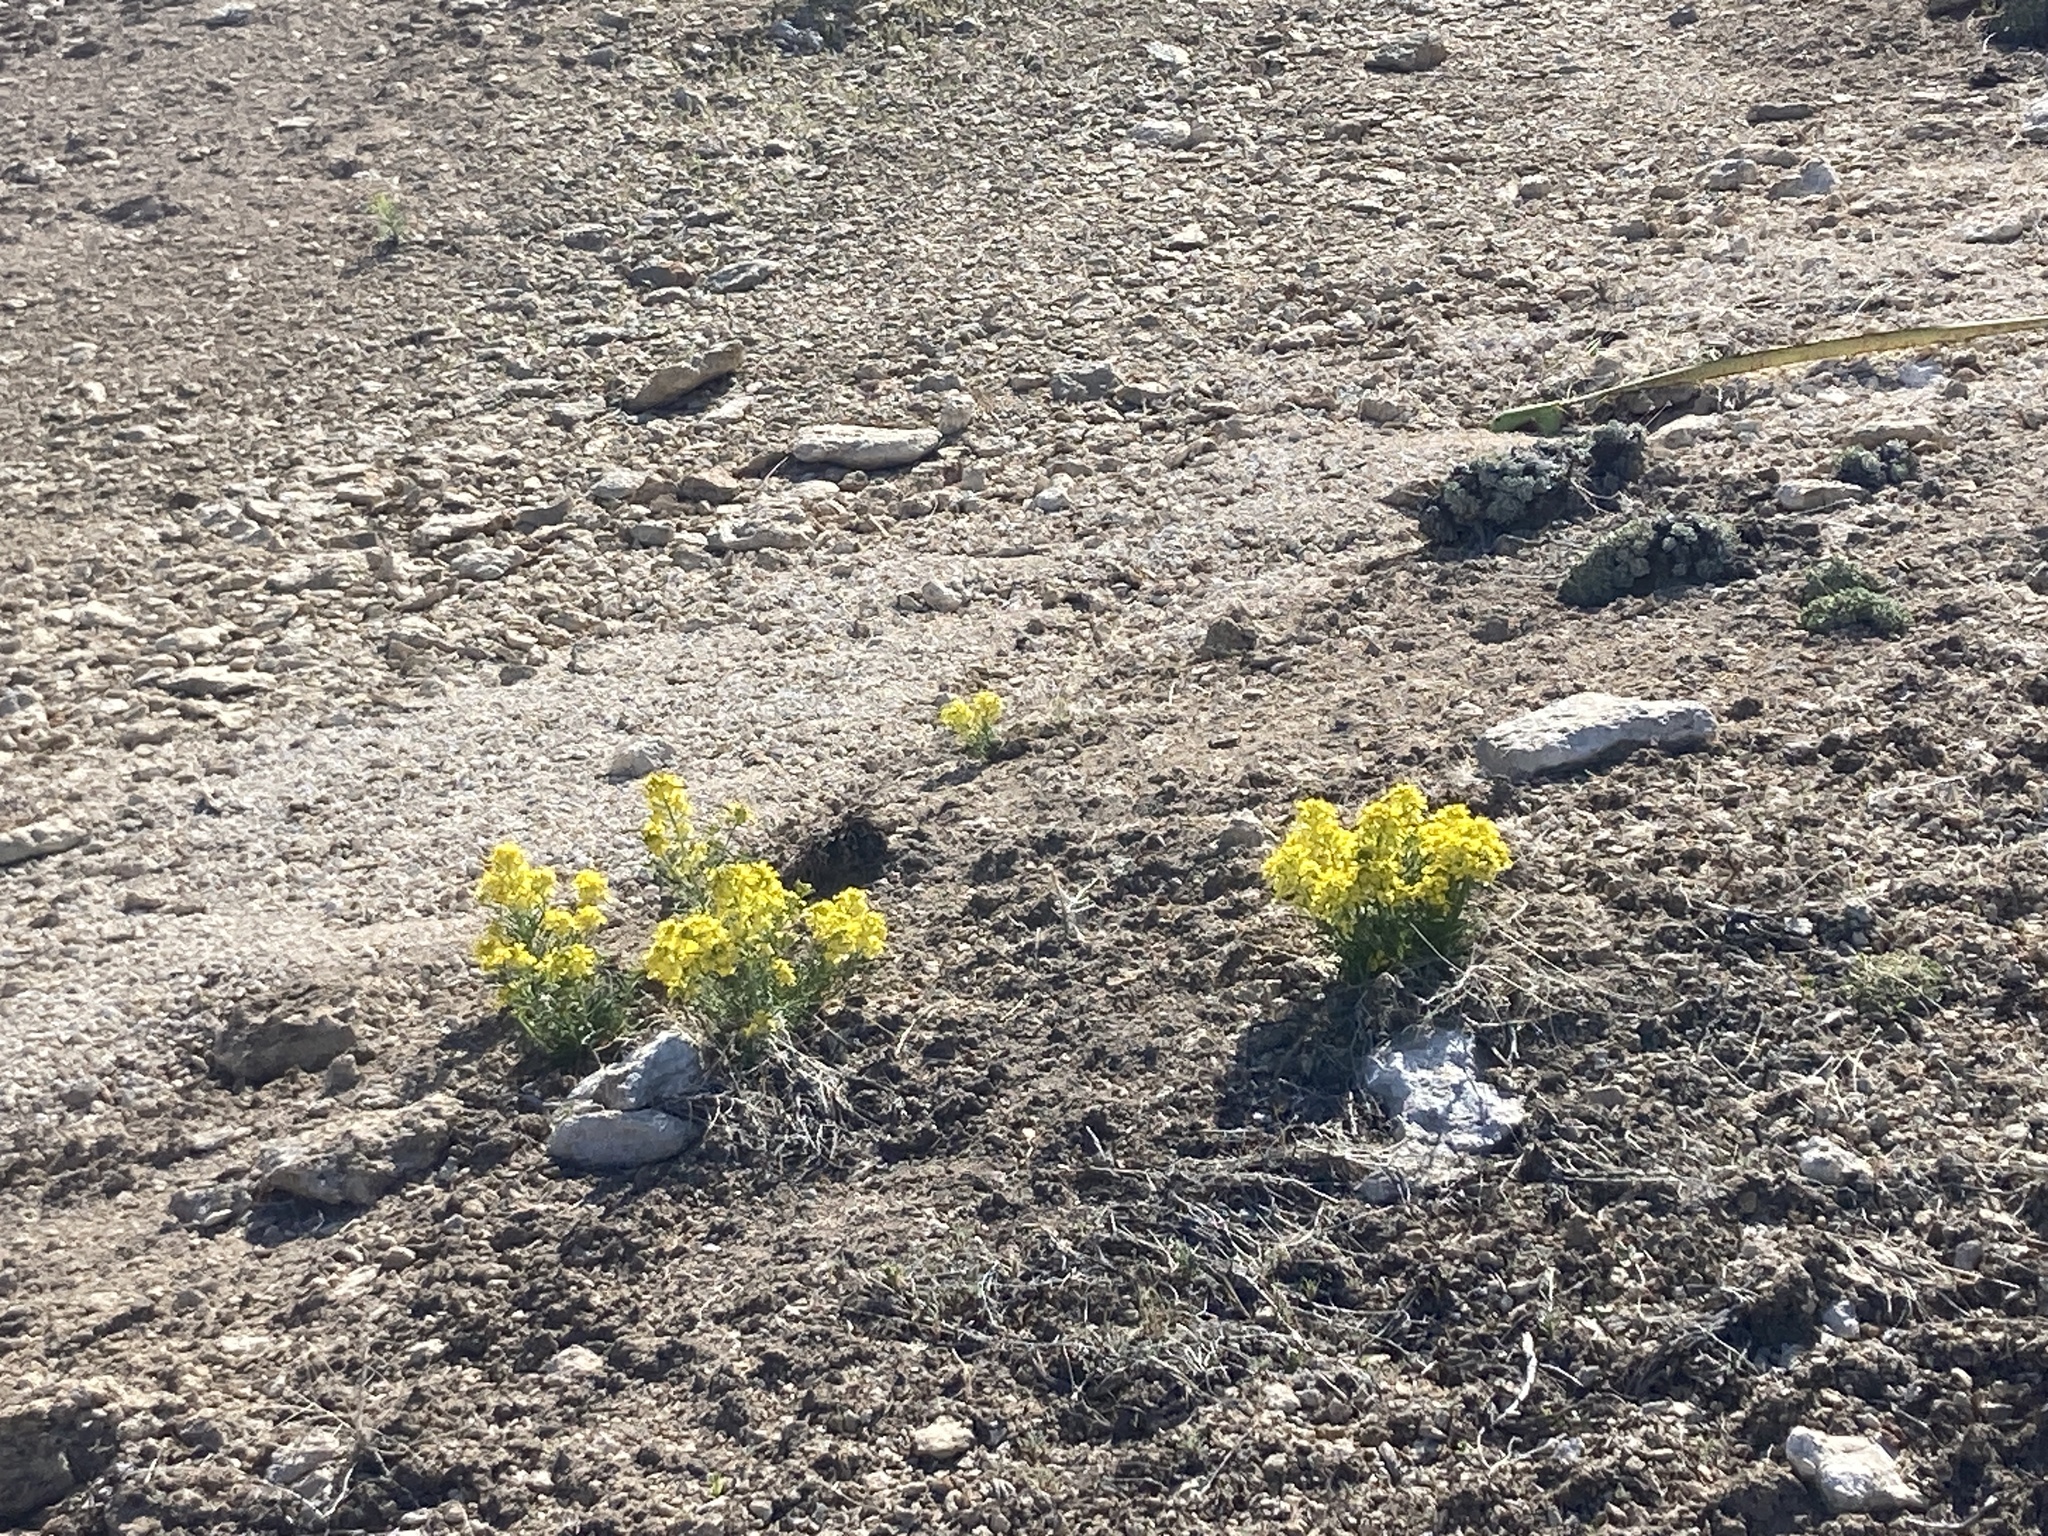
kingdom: Plantae
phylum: Tracheophyta
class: Magnoliopsida
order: Brassicales
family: Brassicaceae
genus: Erysimum
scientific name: Erysimum capitatum
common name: Western wallflower
